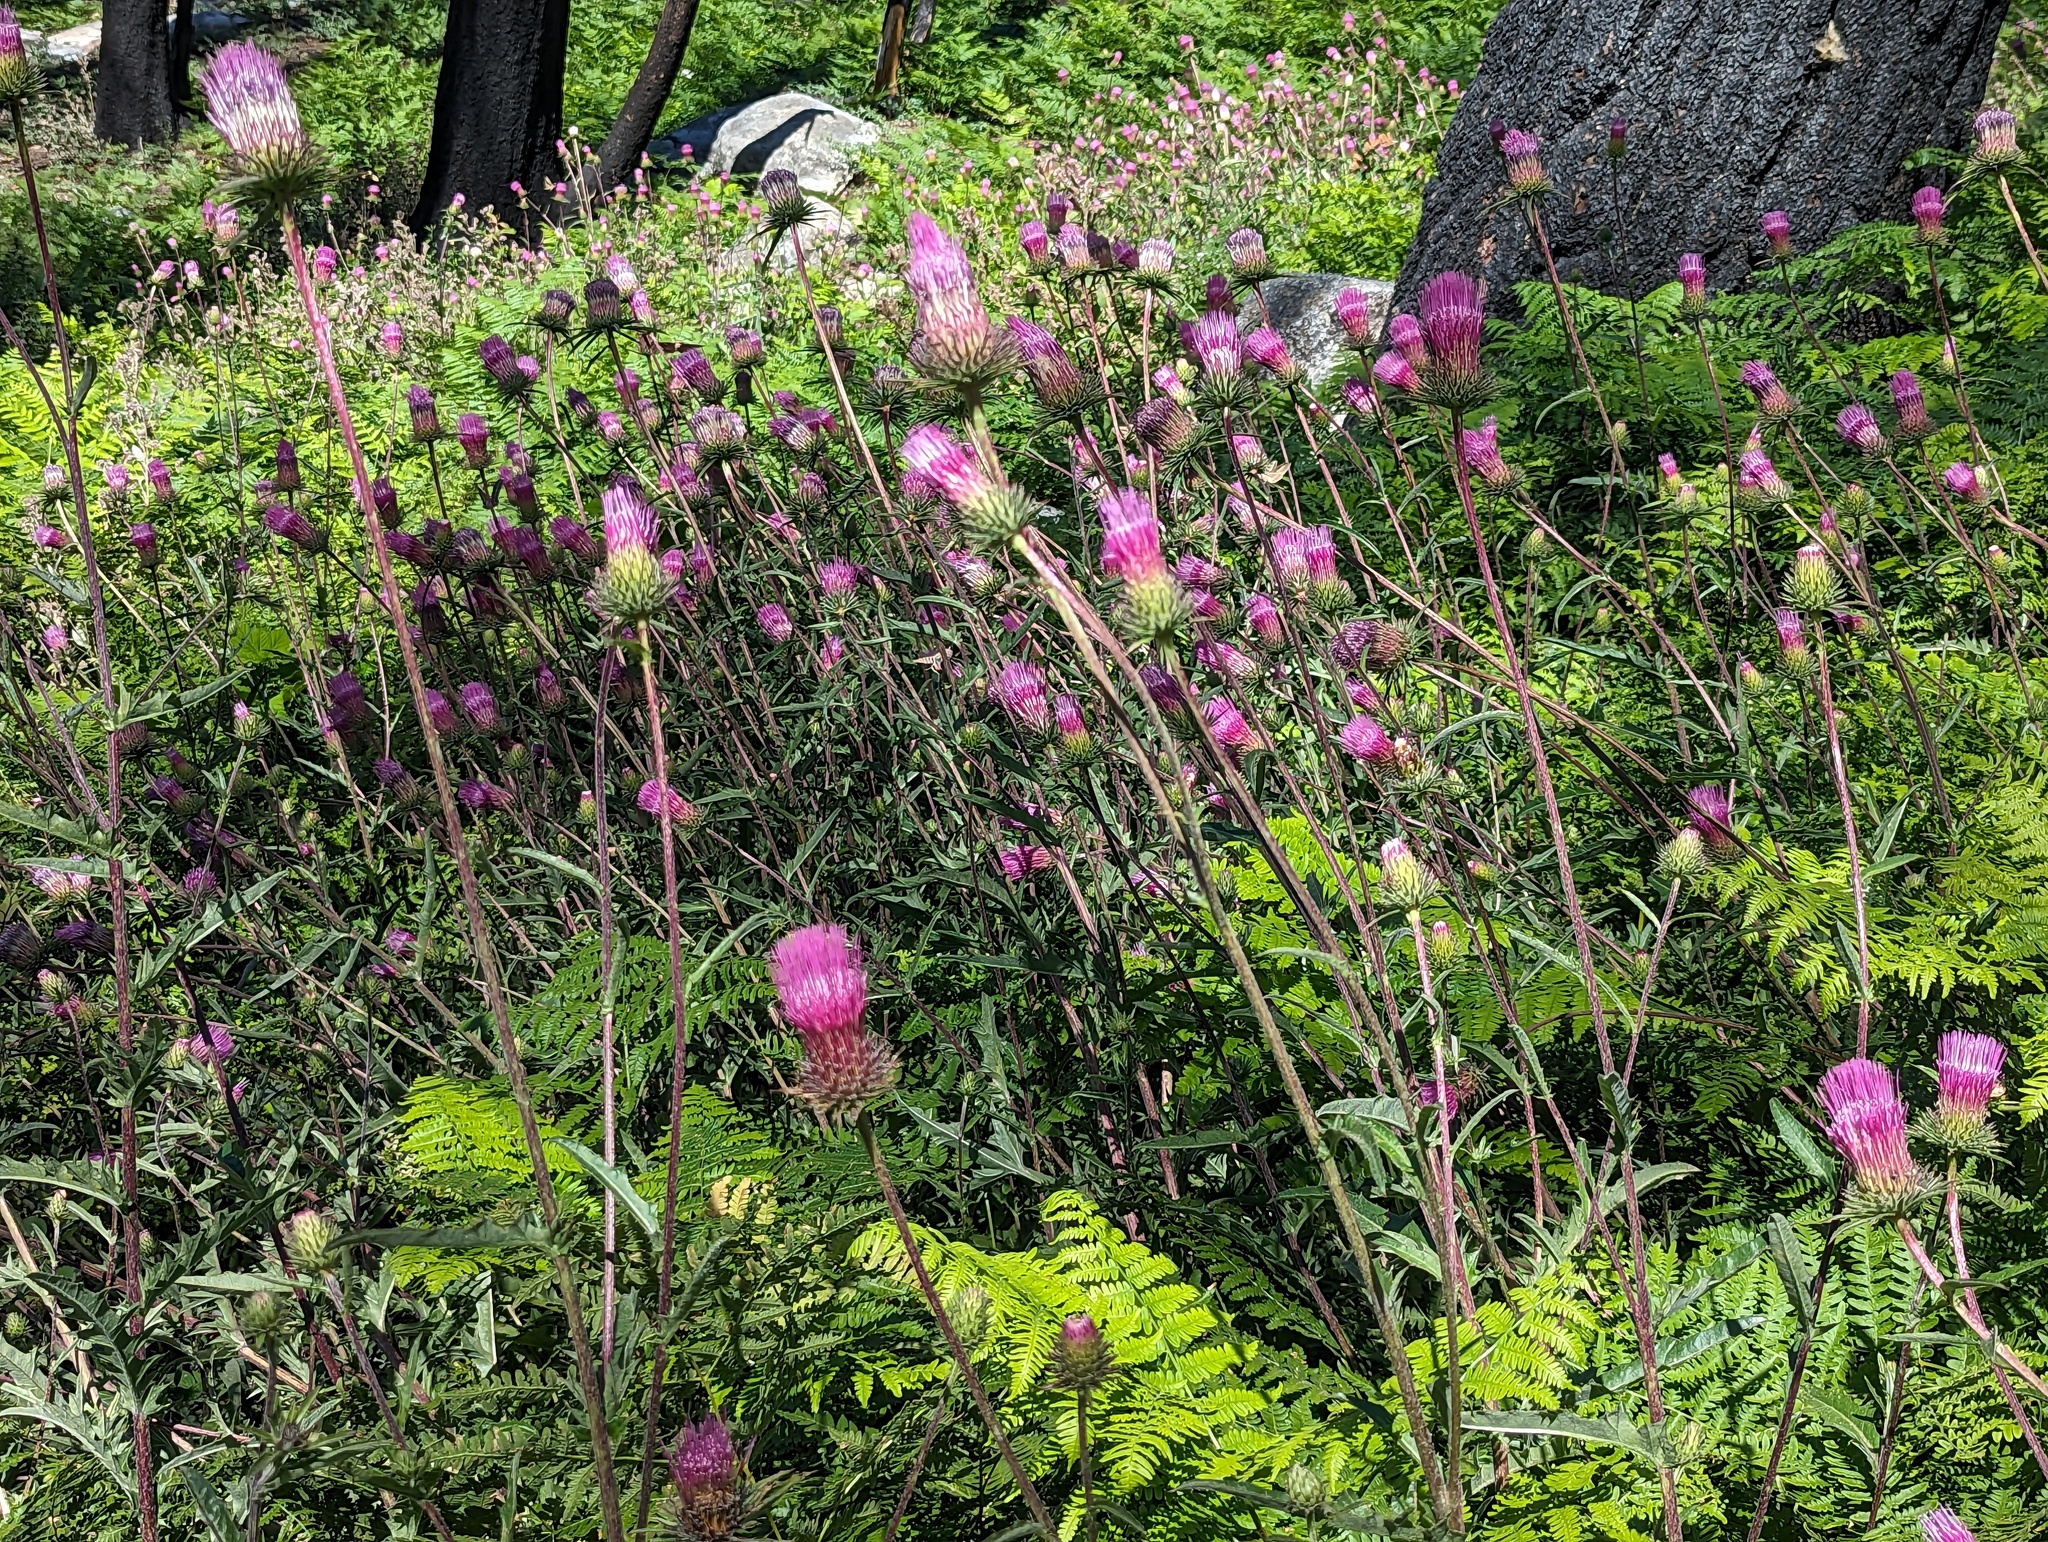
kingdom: Plantae
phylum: Tracheophyta
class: Magnoliopsida
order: Asterales
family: Asteraceae
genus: Cirsium
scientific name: Cirsium andersonii
